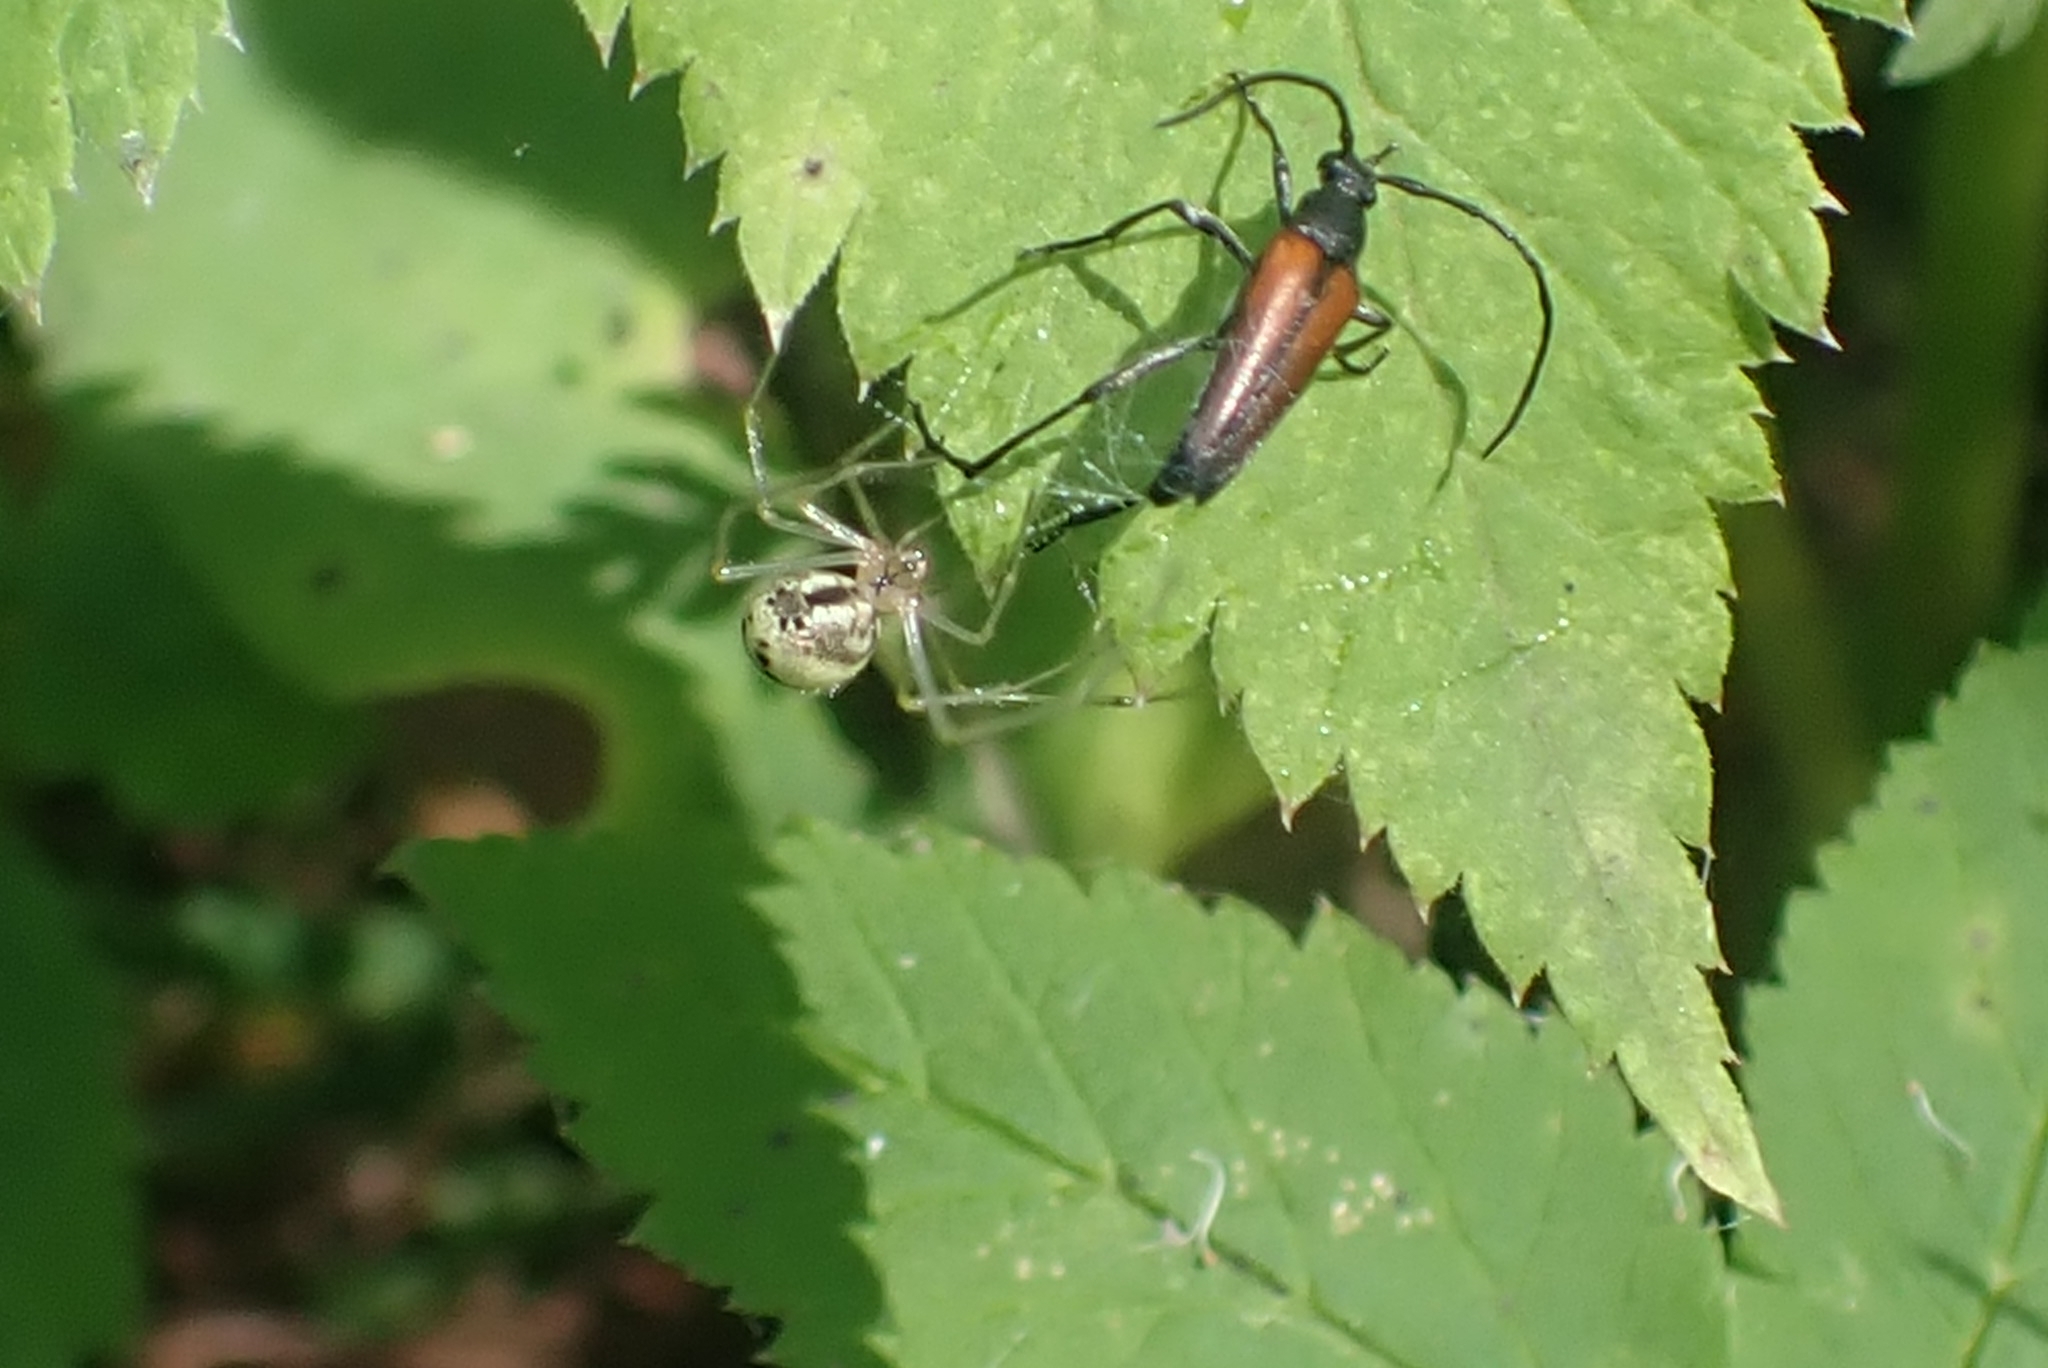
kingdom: Animalia
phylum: Arthropoda
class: Insecta
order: Coleoptera
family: Cerambycidae
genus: Stenurella
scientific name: Stenurella melanura
